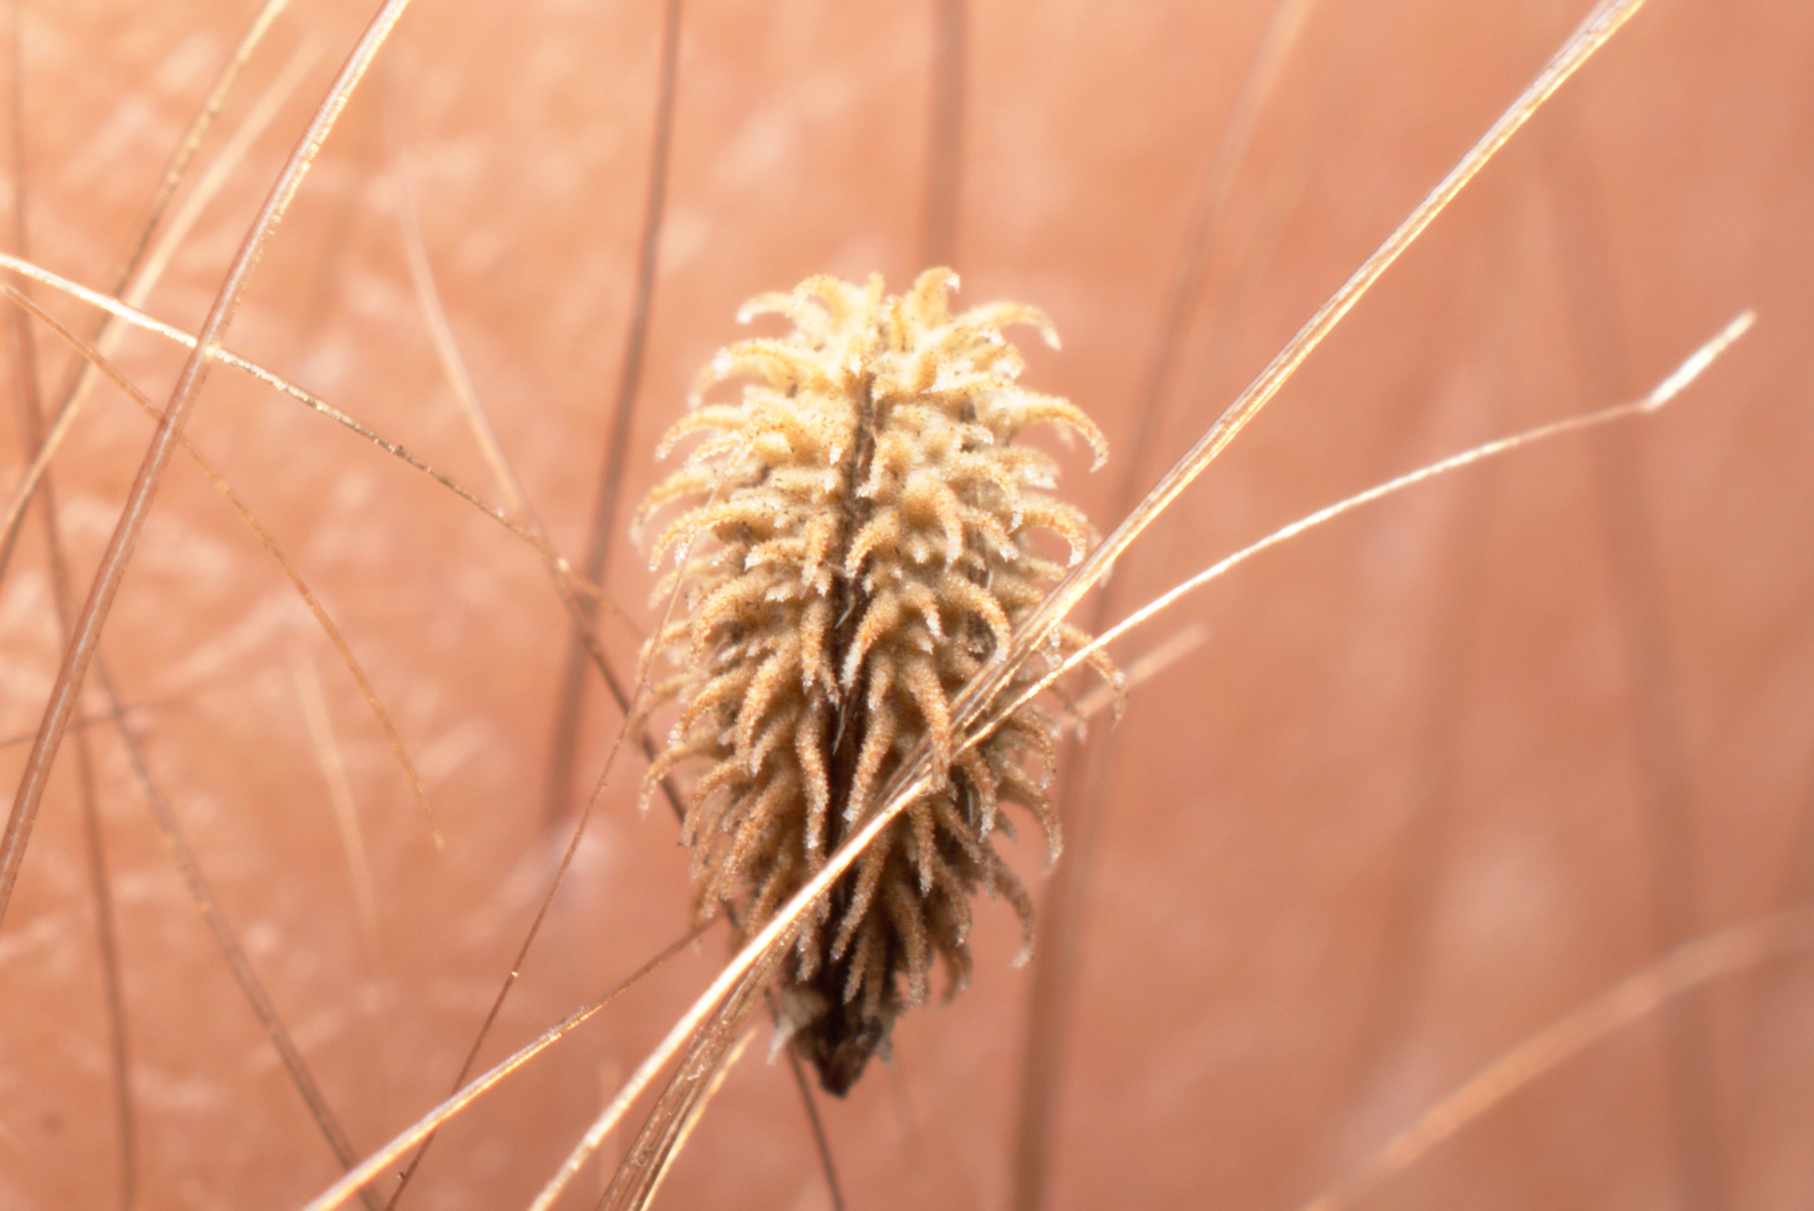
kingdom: Plantae
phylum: Tracheophyta
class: Magnoliopsida
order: Apiales
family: Apiaceae
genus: Torilis
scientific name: Torilis arvensis
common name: Spreading hedge-parsley
